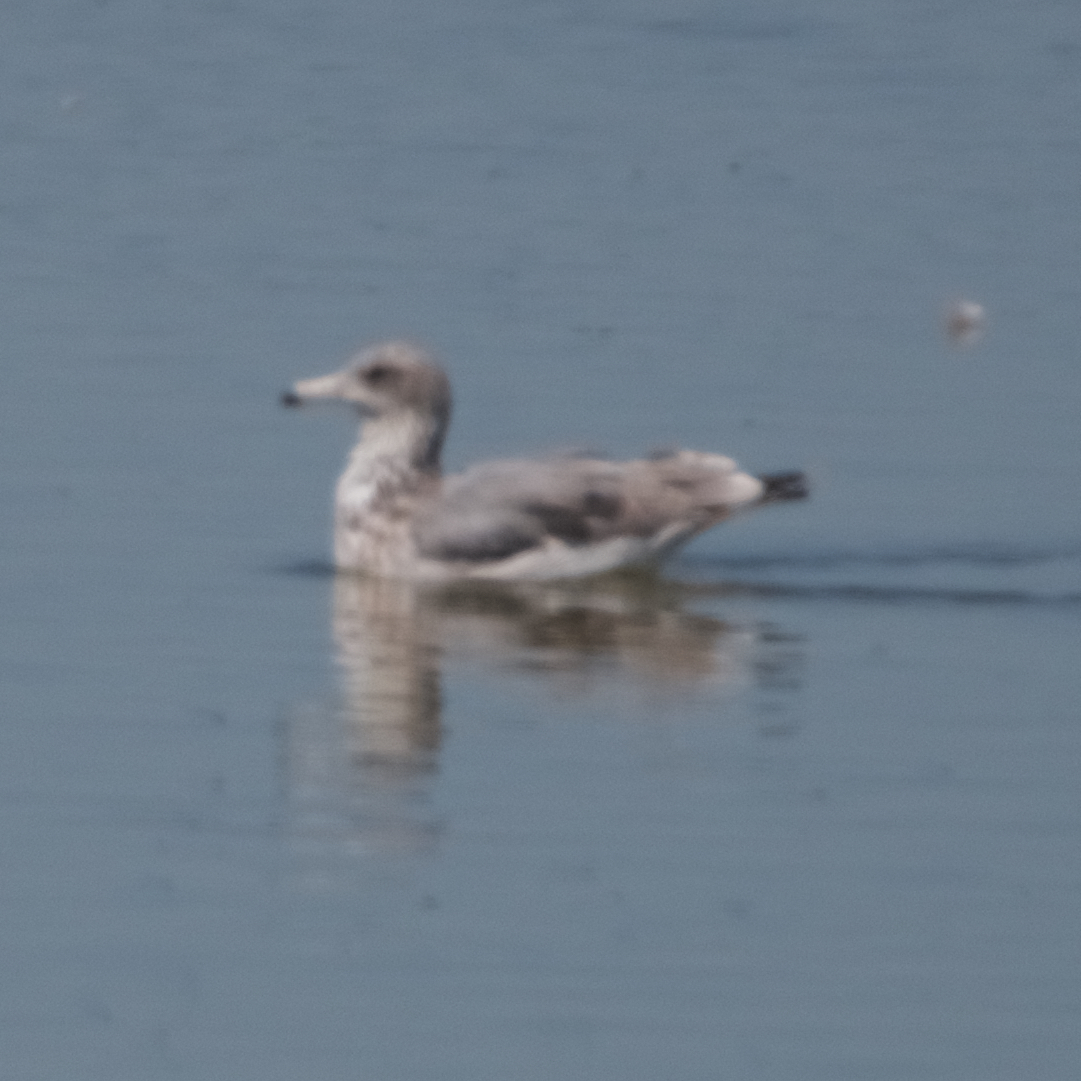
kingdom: Animalia
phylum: Chordata
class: Aves
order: Charadriiformes
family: Laridae
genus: Larus
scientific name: Larus californicus
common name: California gull
